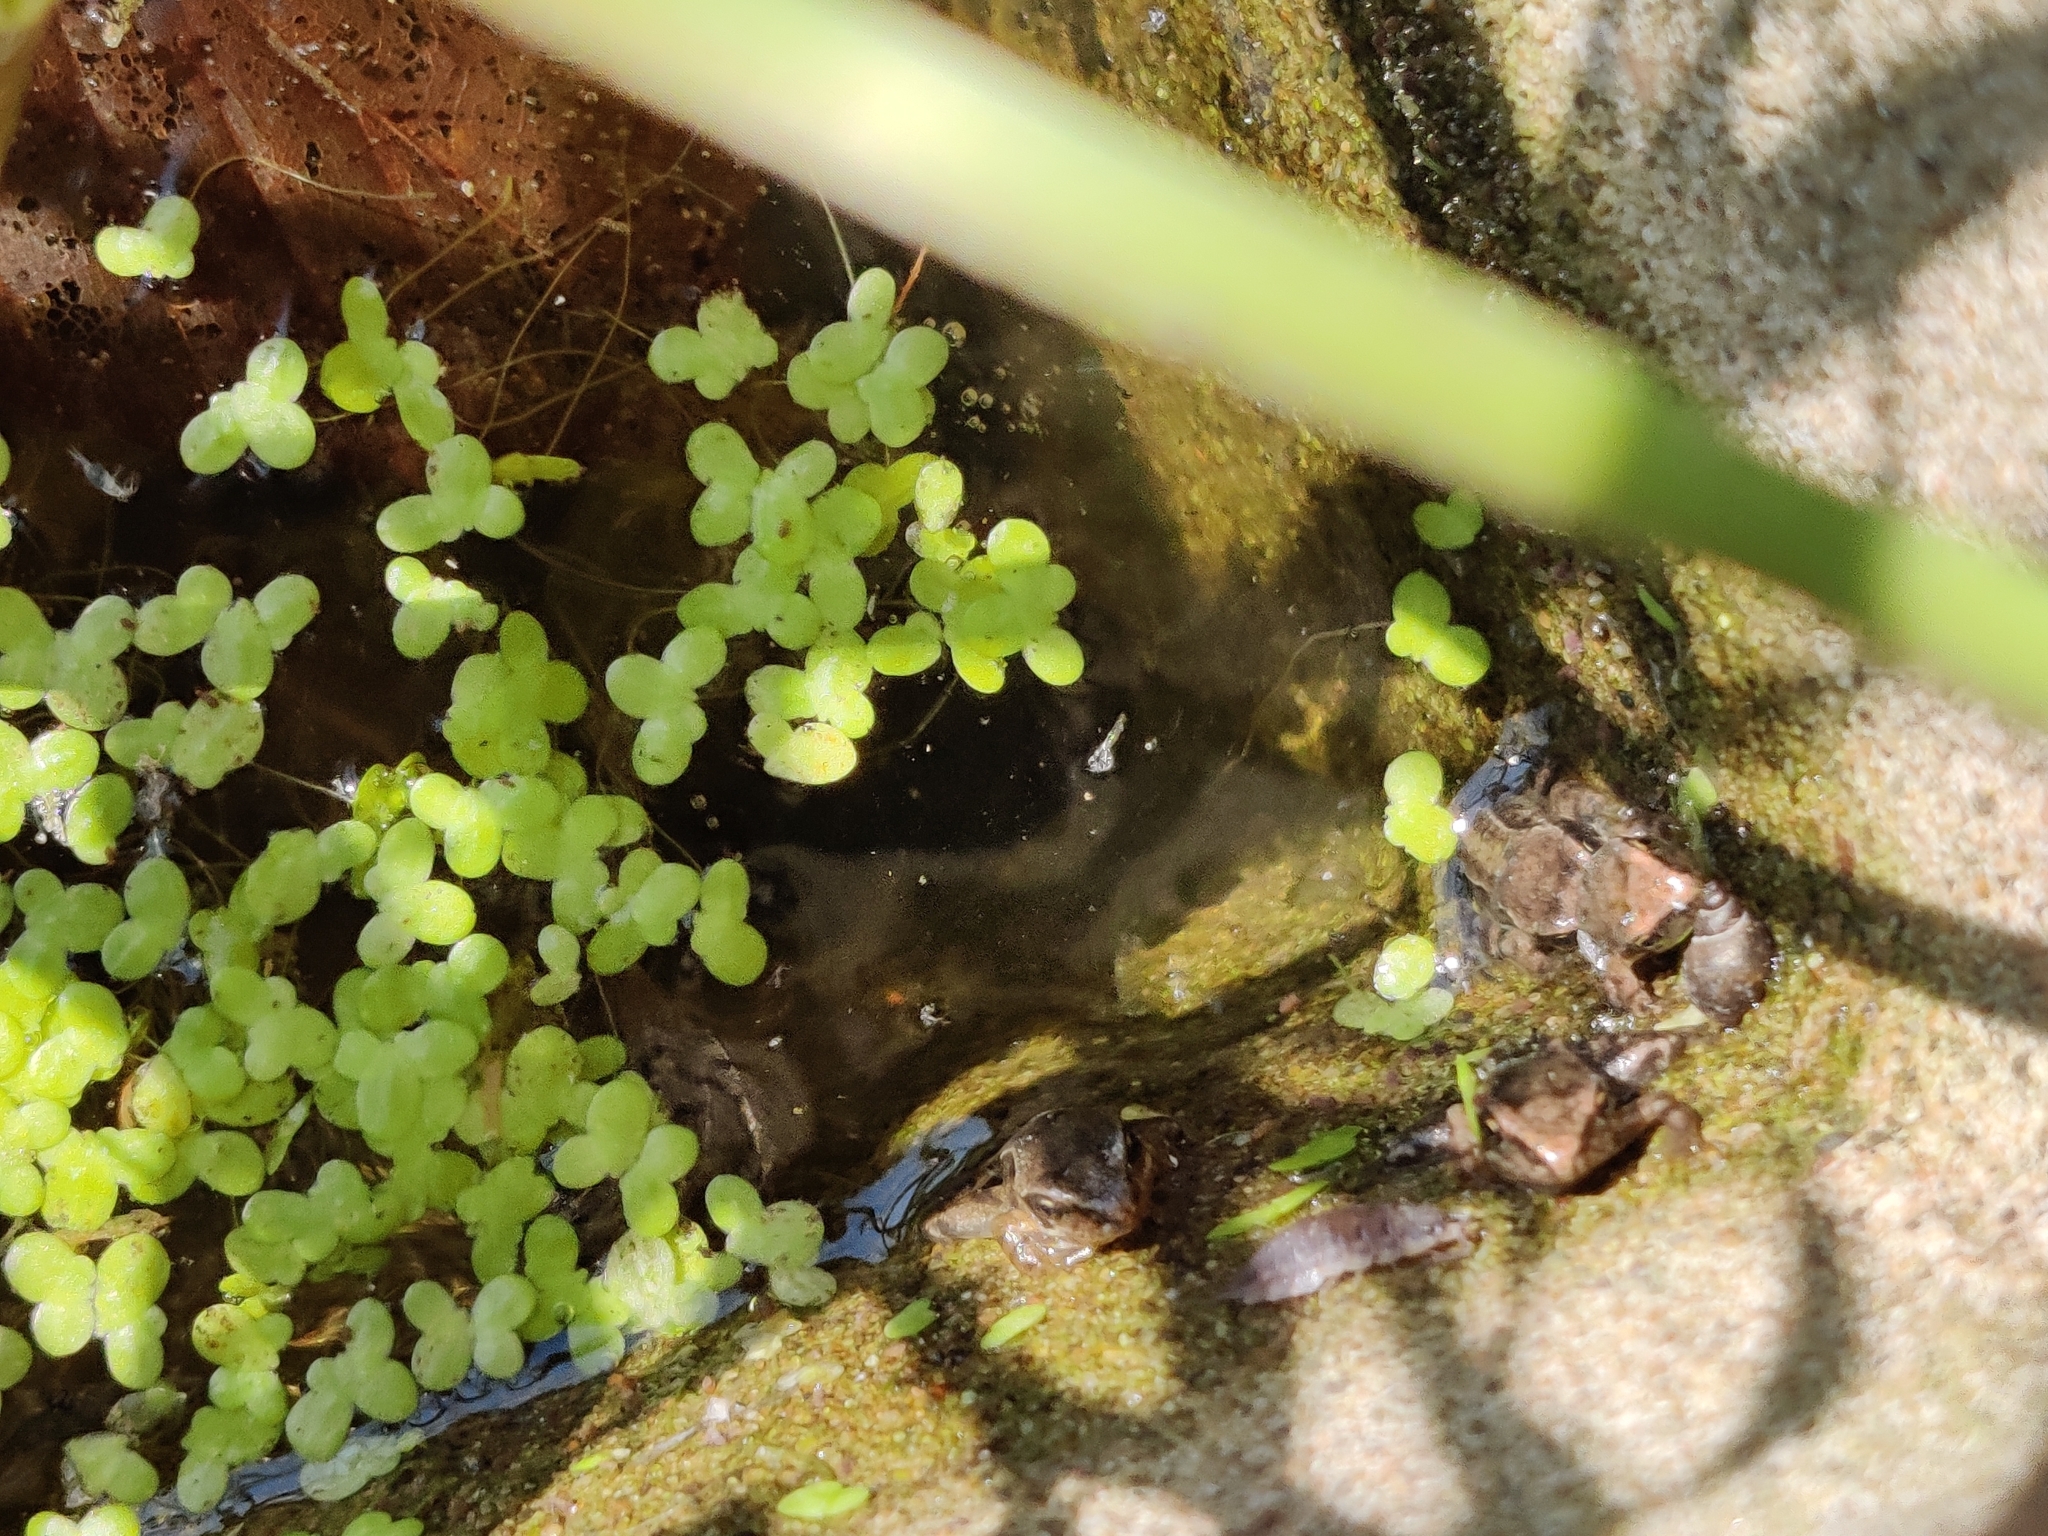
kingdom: Animalia
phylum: Chordata
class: Amphibia
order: Anura
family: Ranidae
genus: Rana
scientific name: Rana temporaria
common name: Common frog
